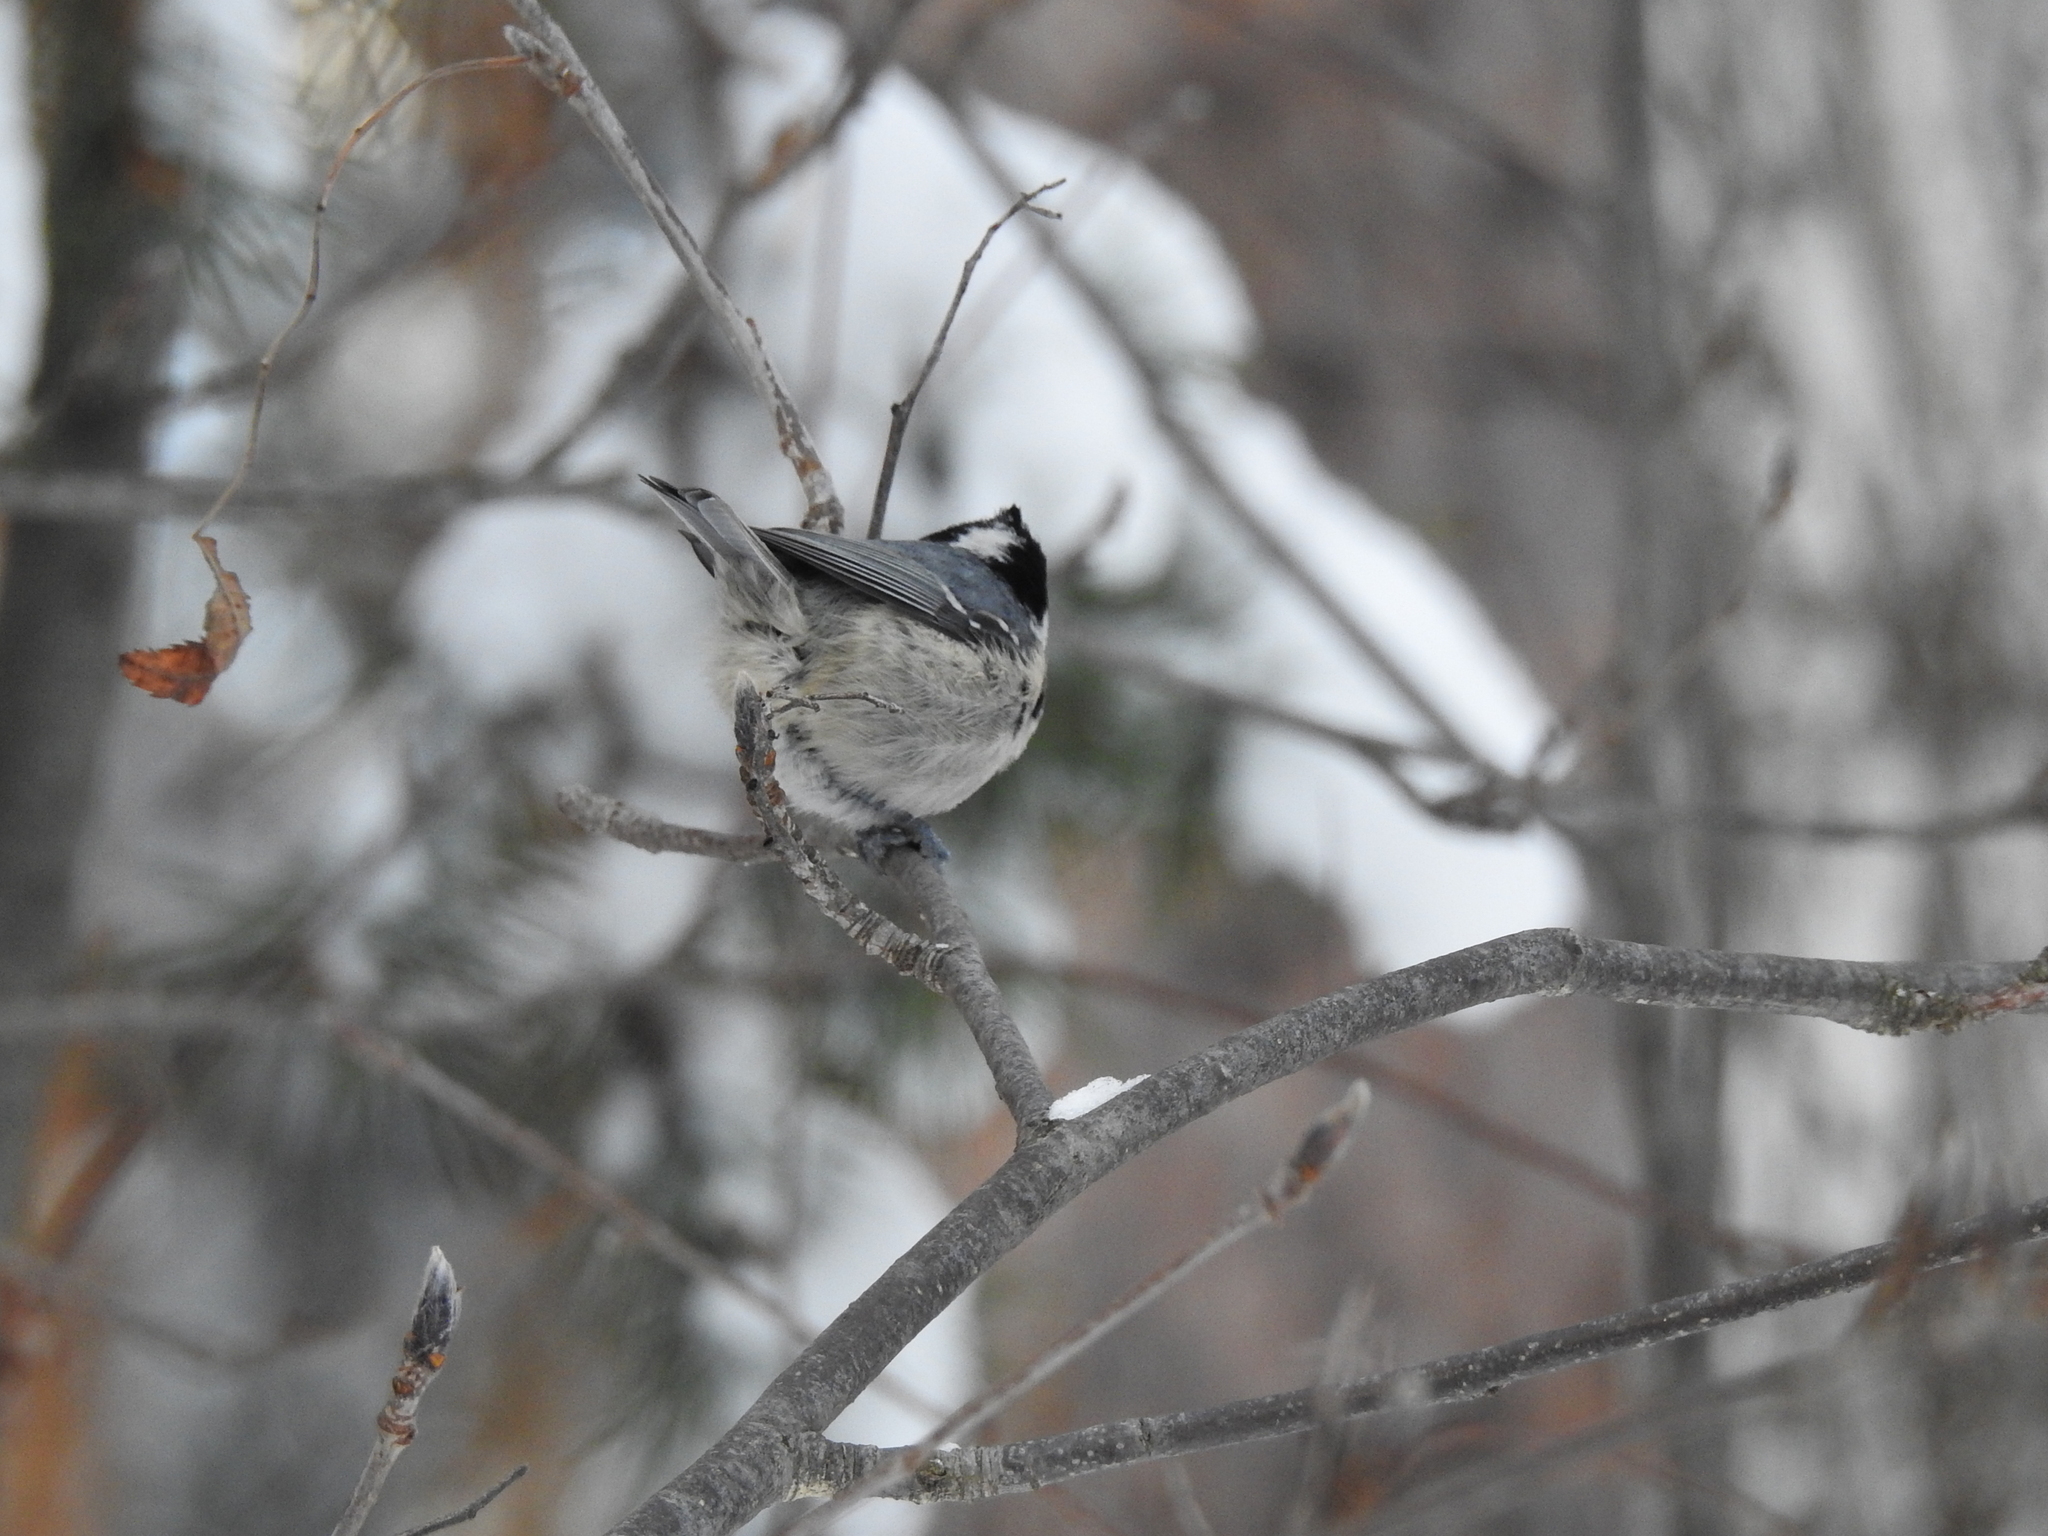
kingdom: Animalia
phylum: Chordata
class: Aves
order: Passeriformes
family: Paridae
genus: Periparus
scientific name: Periparus ater
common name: Coal tit
